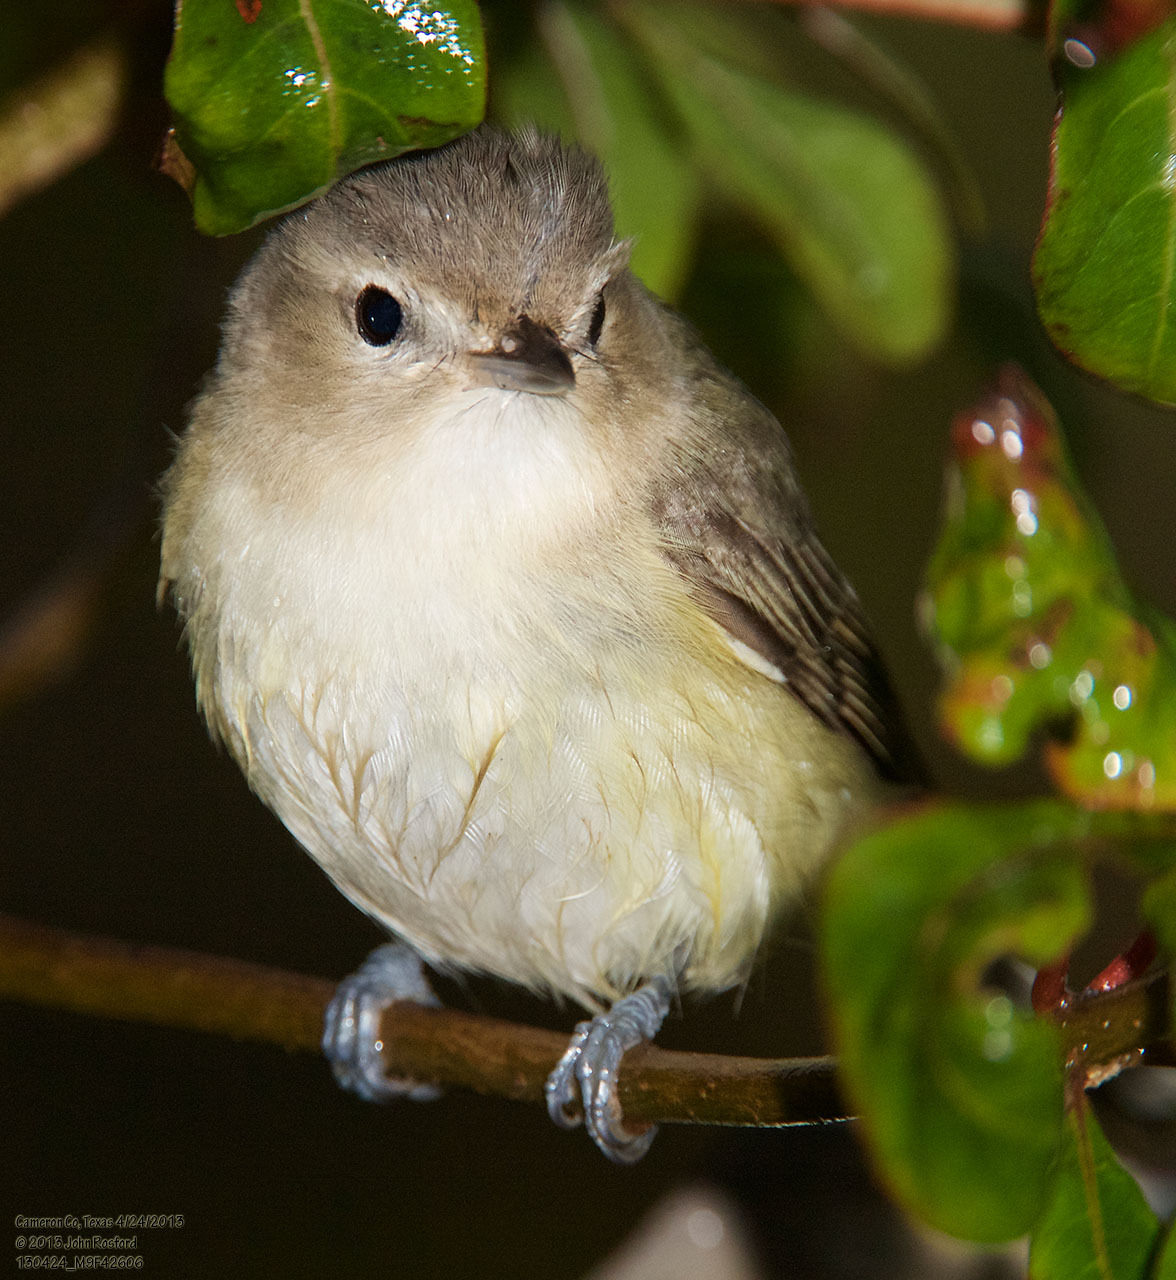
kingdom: Animalia
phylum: Chordata
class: Aves
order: Passeriformes
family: Vireonidae
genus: Vireo
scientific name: Vireo gilvus
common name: Warbling vireo
